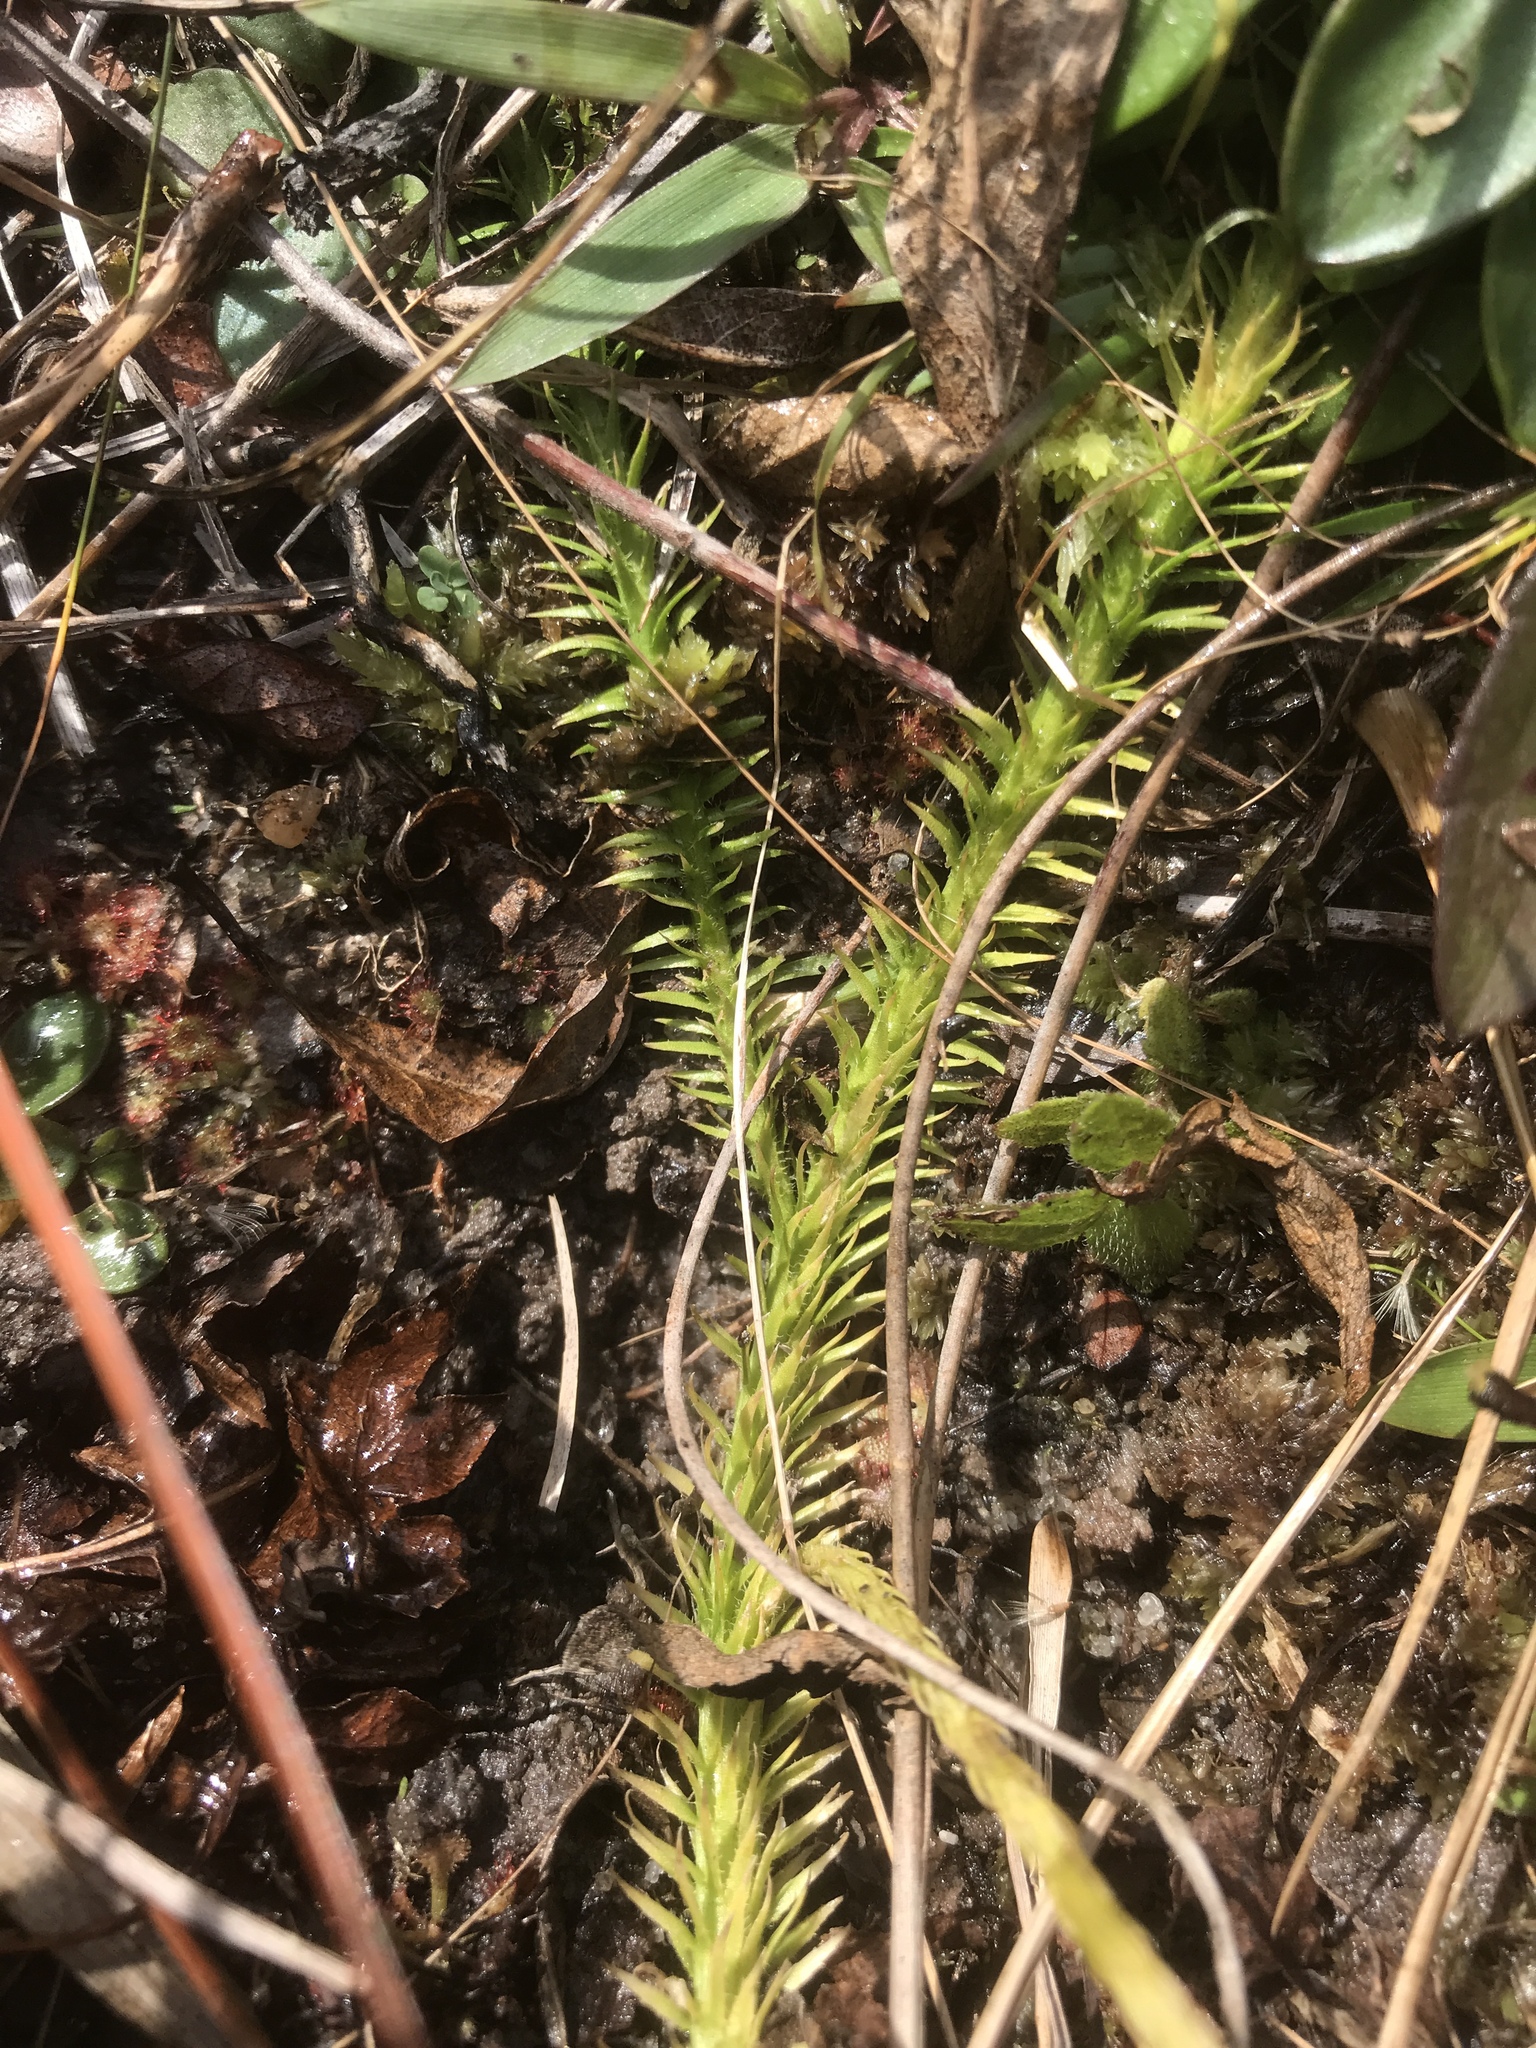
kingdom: Plantae
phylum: Tracheophyta
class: Lycopodiopsida
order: Lycopodiales
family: Lycopodiaceae
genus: Lycopodiella
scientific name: Lycopodiella appressa
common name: Appressed bog clubmoss
